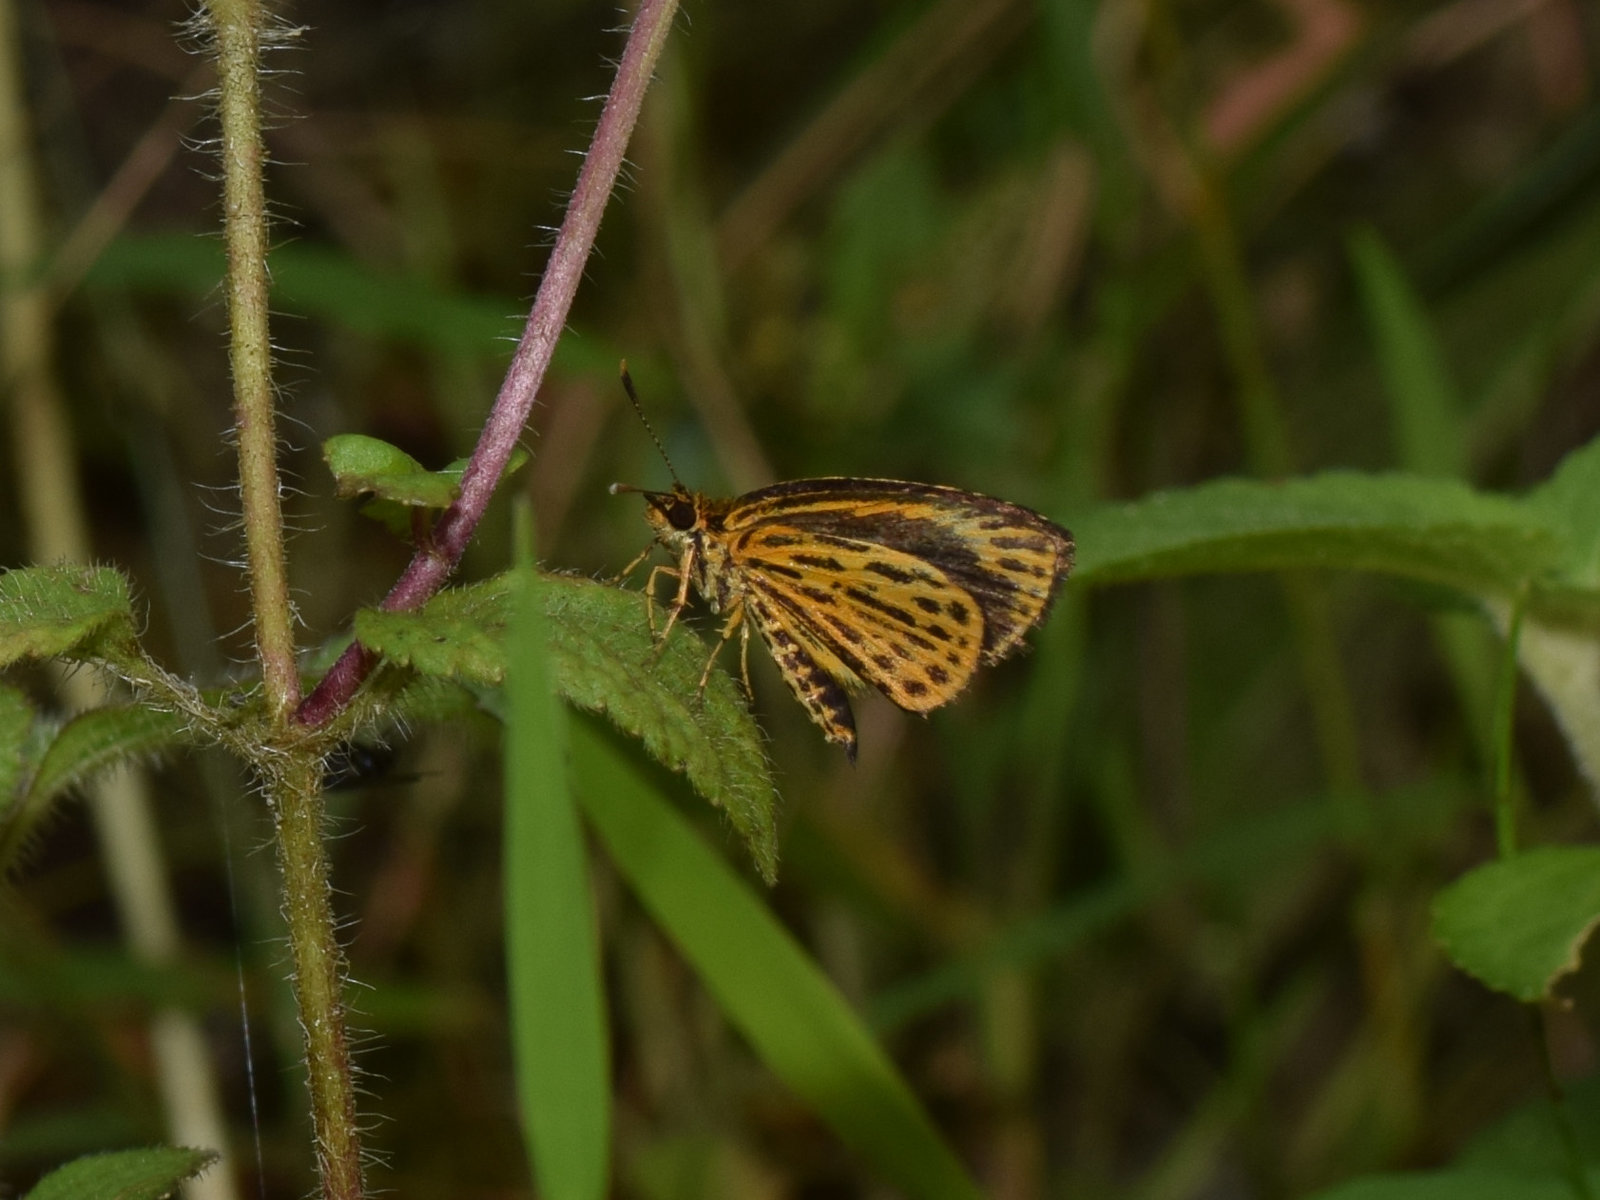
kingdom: Animalia
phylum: Arthropoda
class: Insecta
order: Lepidoptera
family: Hesperiidae
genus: Ampittia
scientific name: Ampittia subvittatus
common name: Tiger hopper
